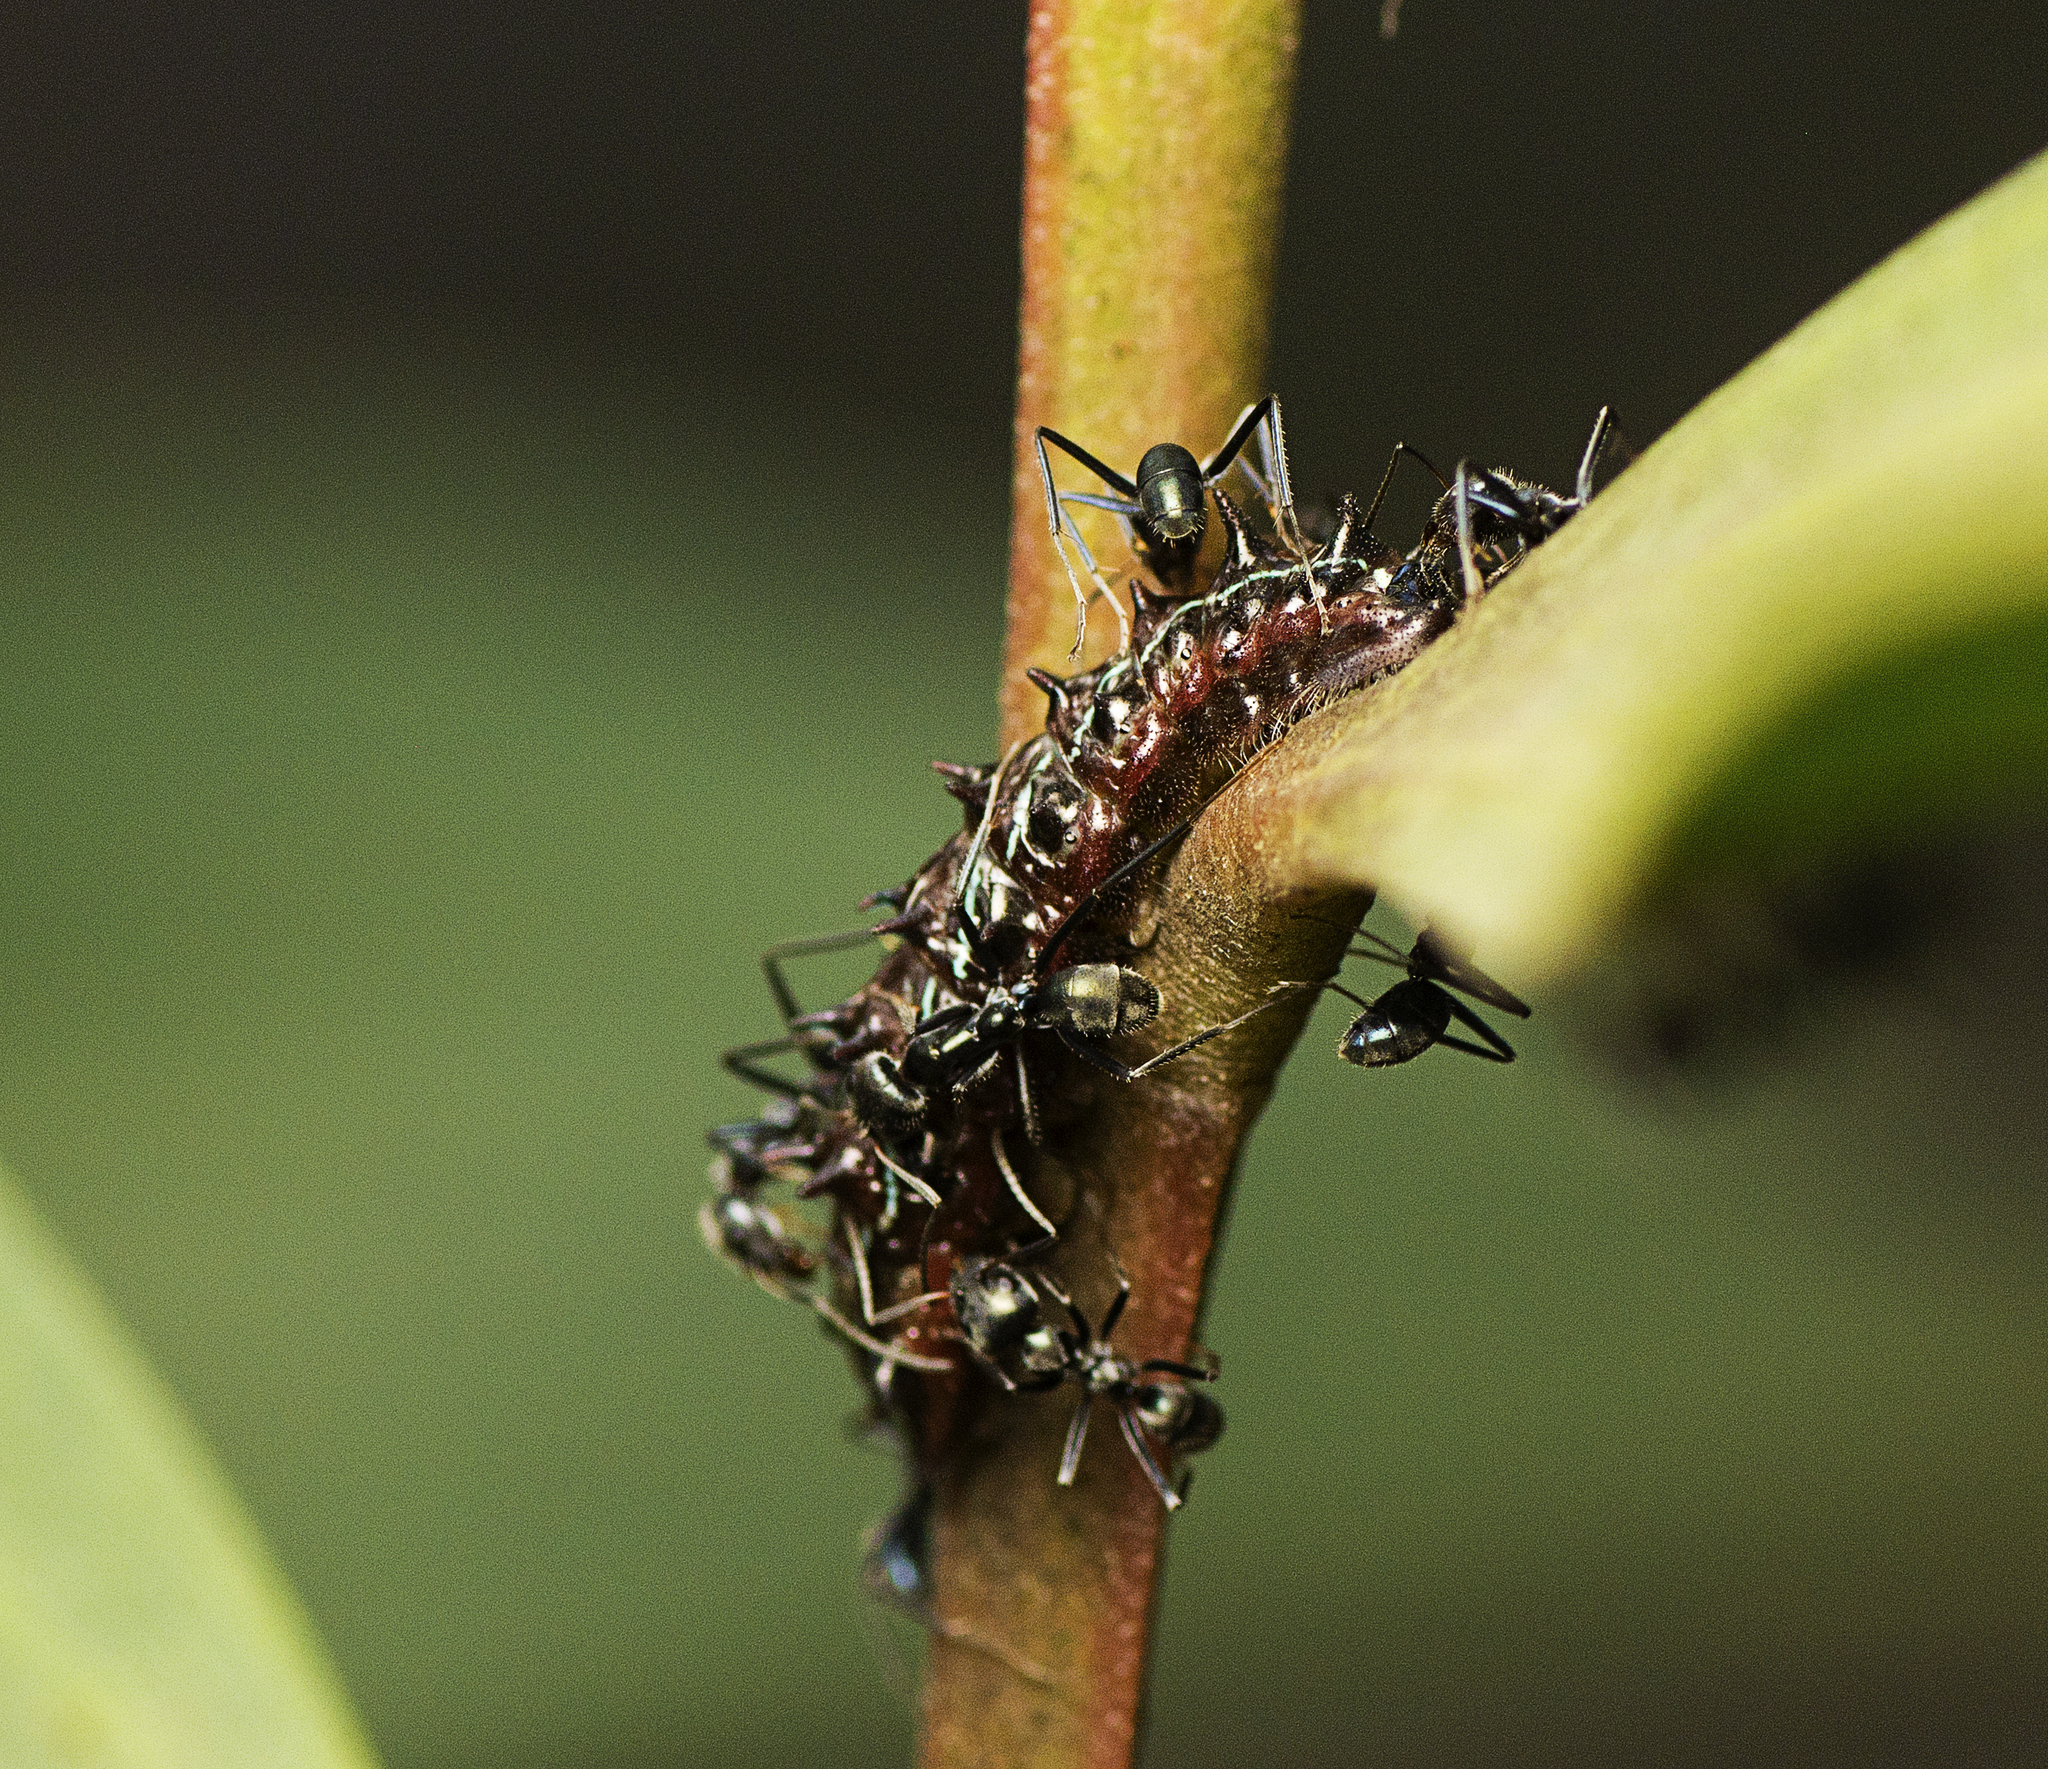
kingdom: Animalia
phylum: Arthropoda
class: Insecta
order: Lepidoptera
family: Lycaenidae
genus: Jalmenus
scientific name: Jalmenus evagoras
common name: Common imperial blue
